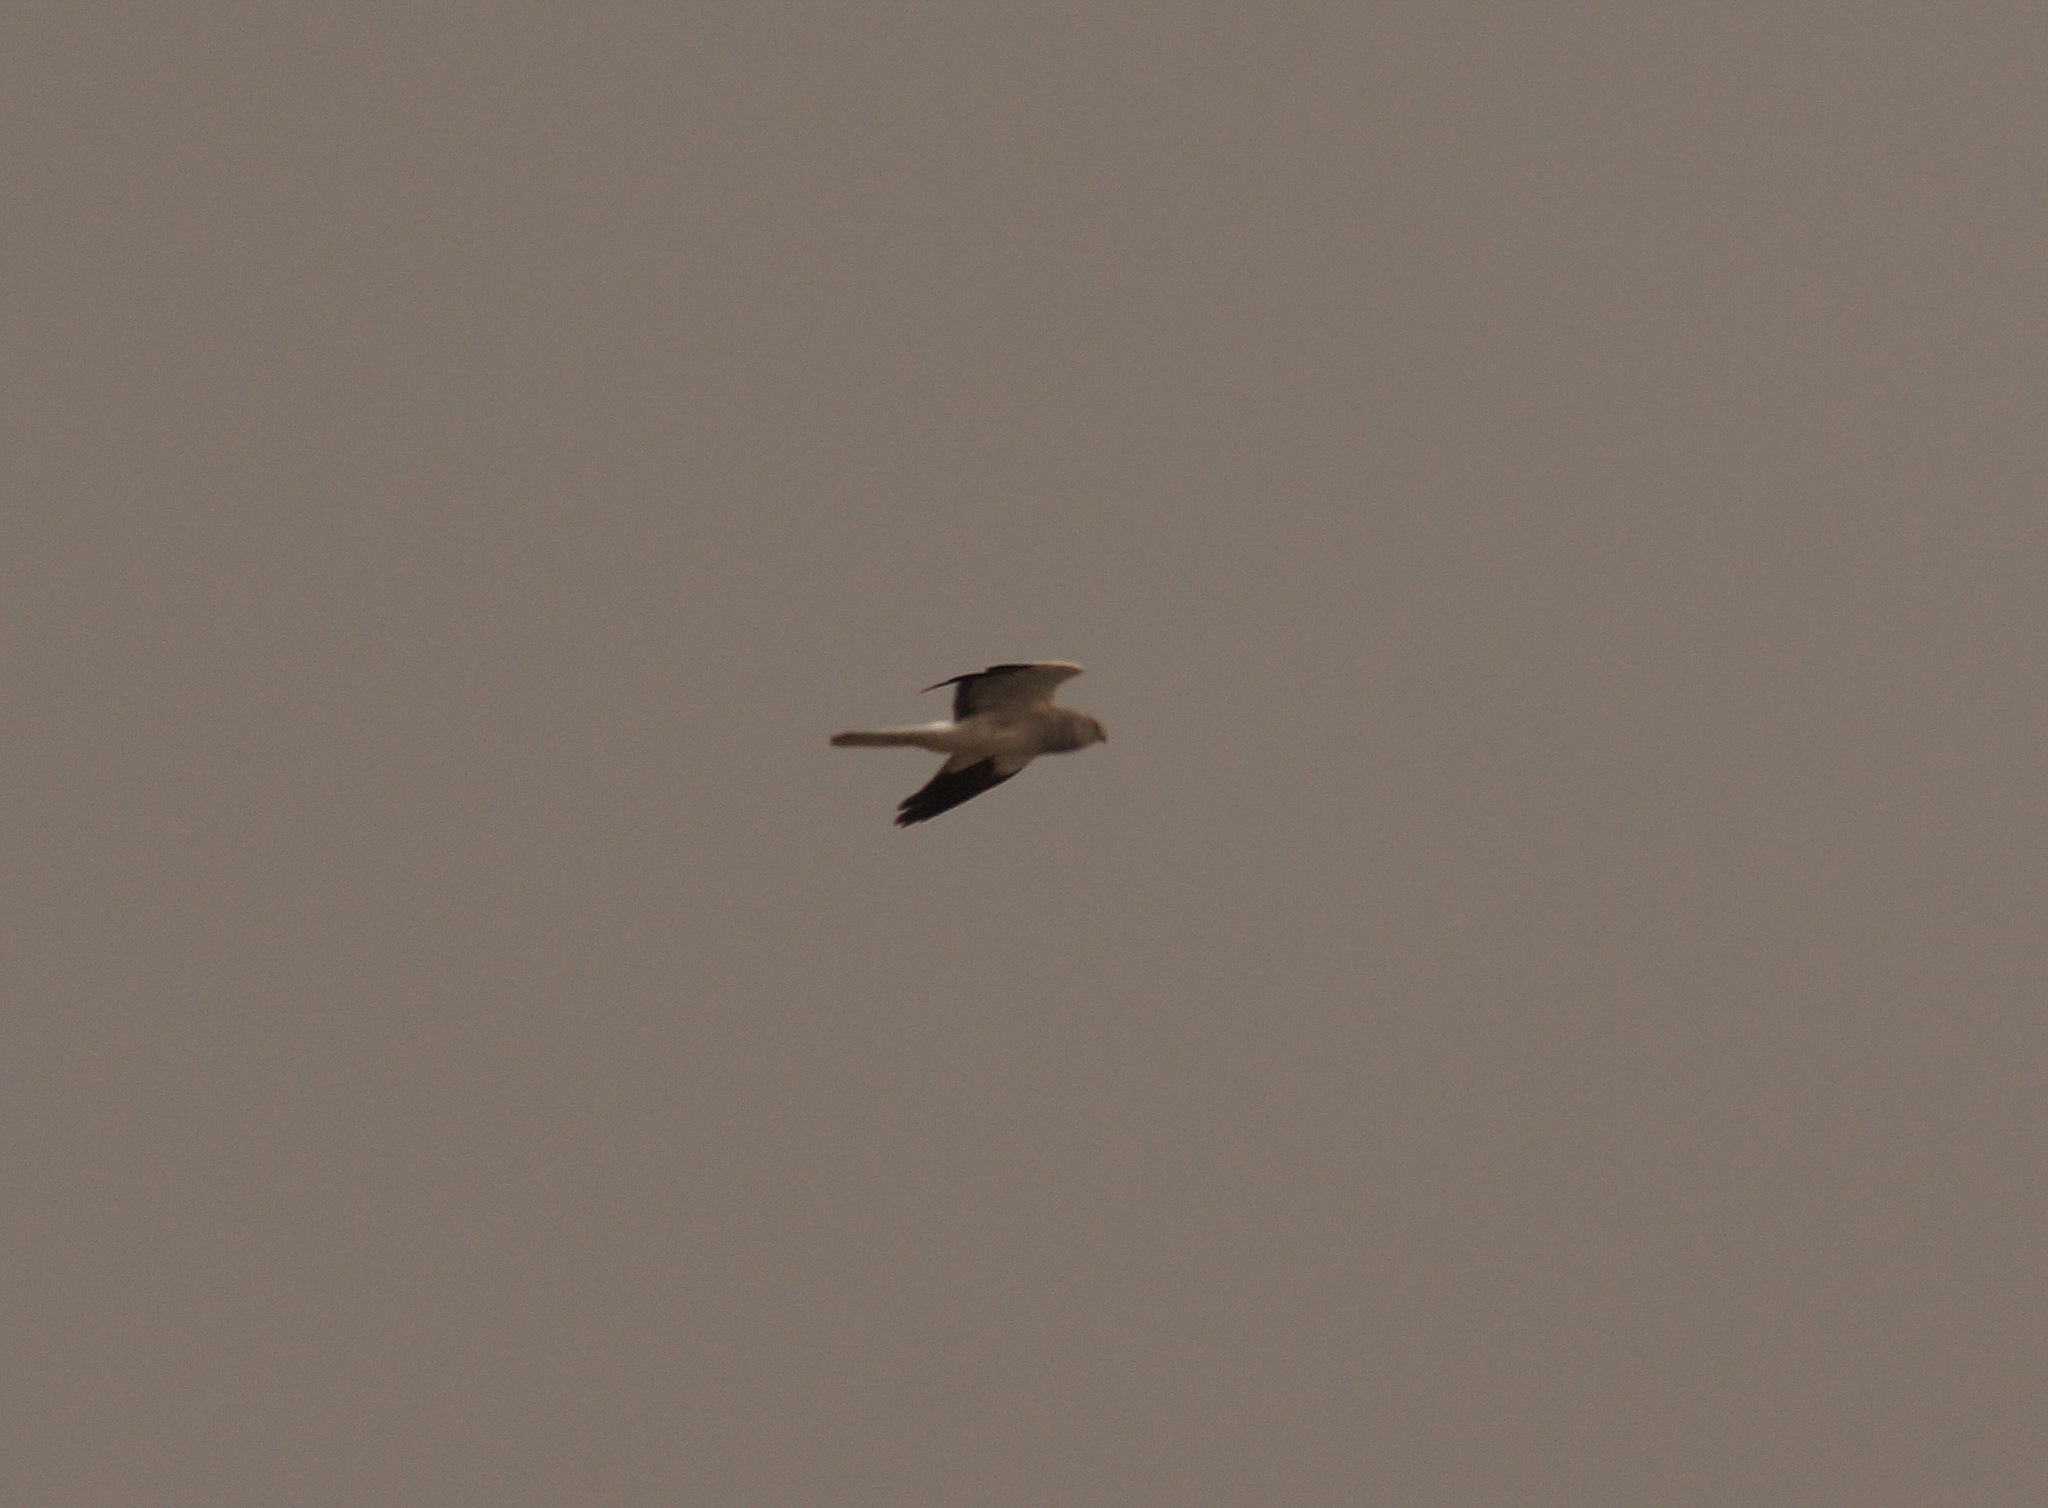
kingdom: Animalia
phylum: Chordata
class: Aves
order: Accipitriformes
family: Accipitridae
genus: Circus
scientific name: Circus cyaneus
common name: Hen harrier
